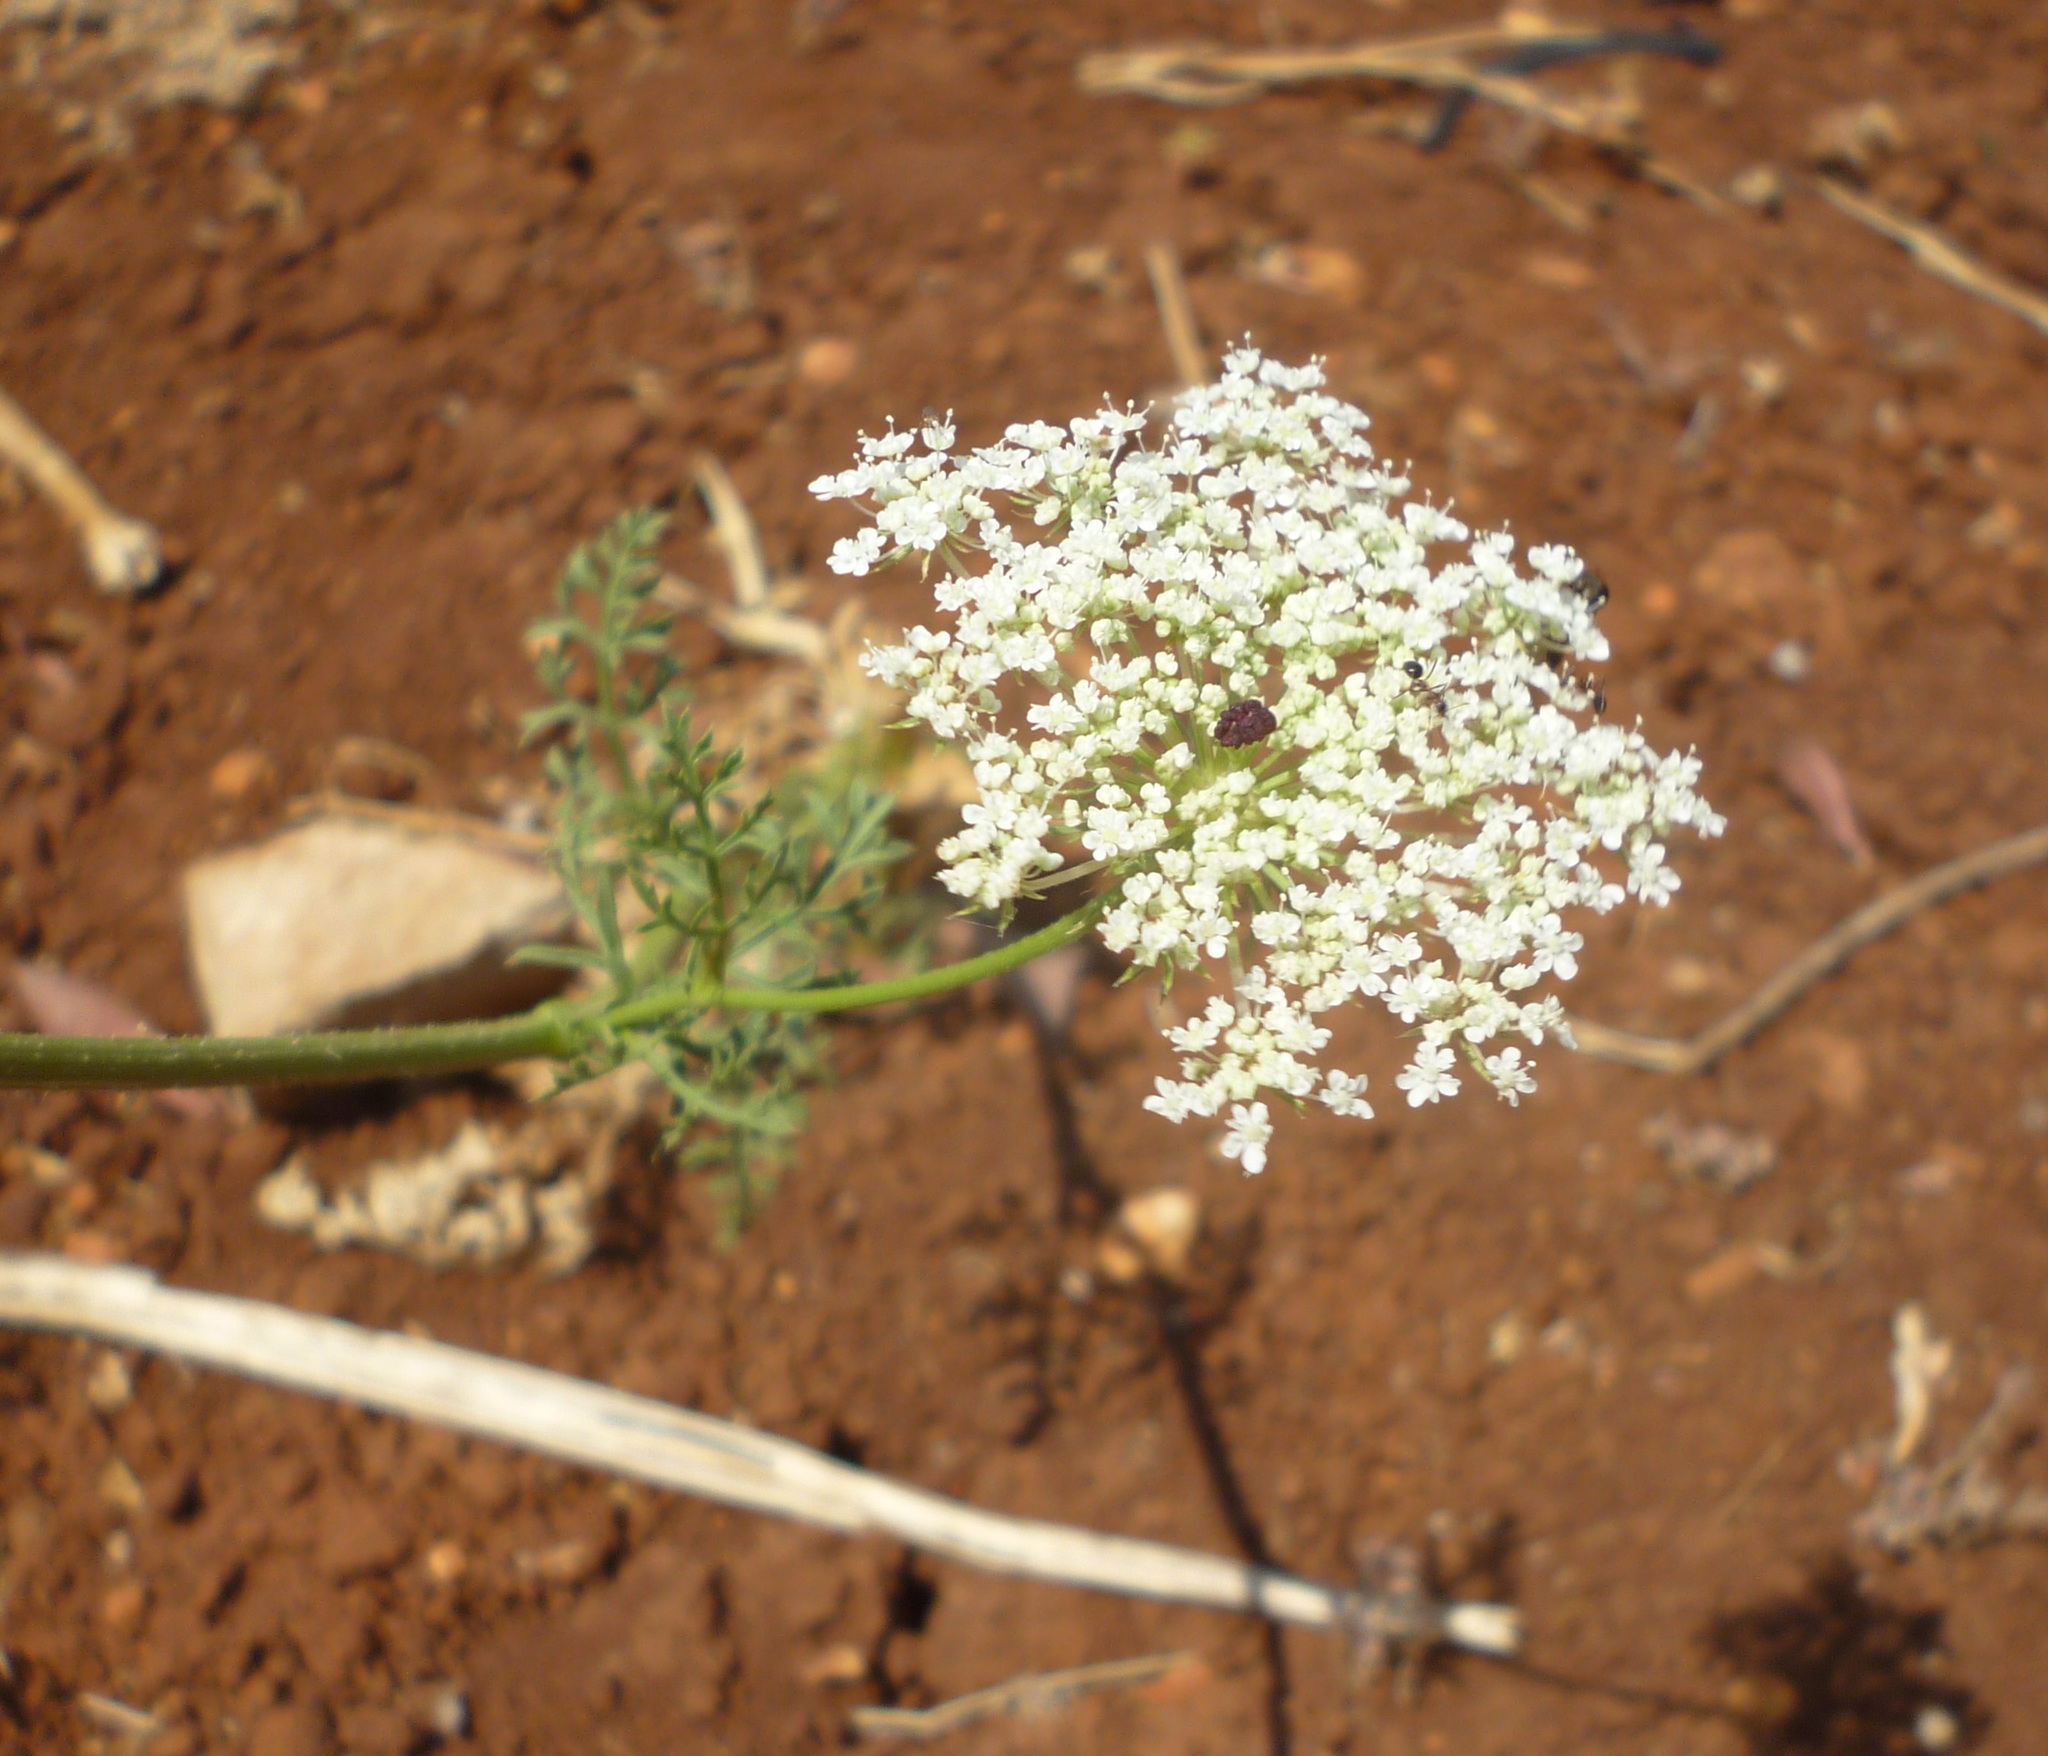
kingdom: Plantae
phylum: Tracheophyta
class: Magnoliopsida
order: Apiales
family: Apiaceae
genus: Daucus
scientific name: Daucus carota
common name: Wild carrot
